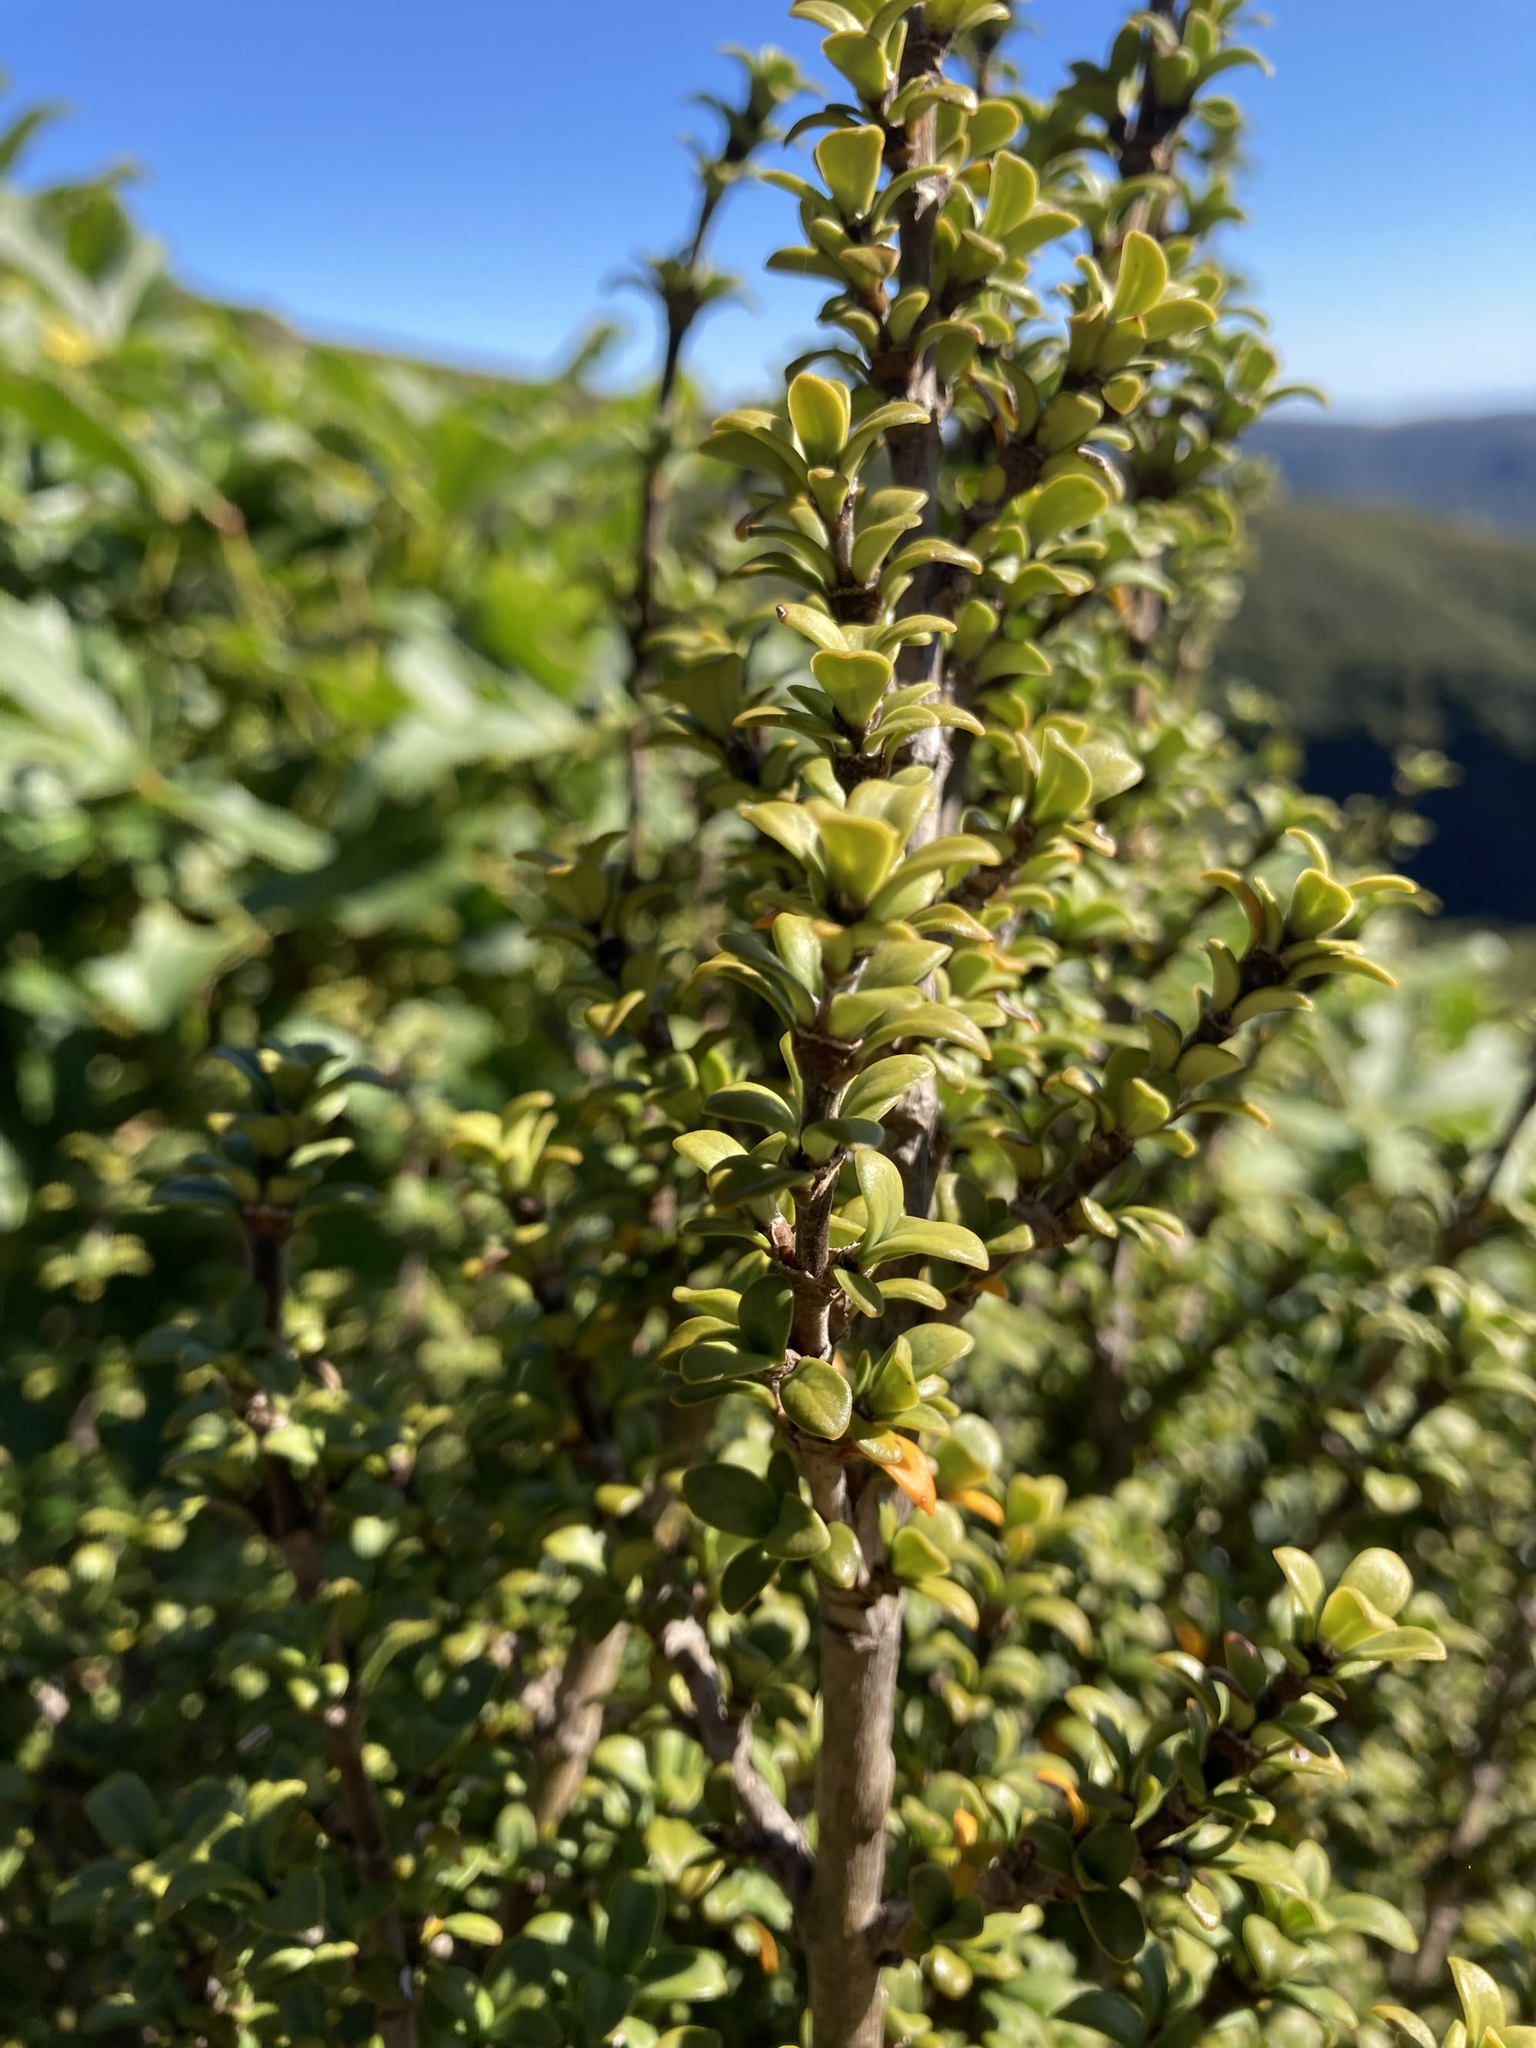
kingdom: Plantae
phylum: Tracheophyta
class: Magnoliopsida
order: Gentianales
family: Rubiaceae
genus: Coprosma
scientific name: Coprosma pseudocuneata
